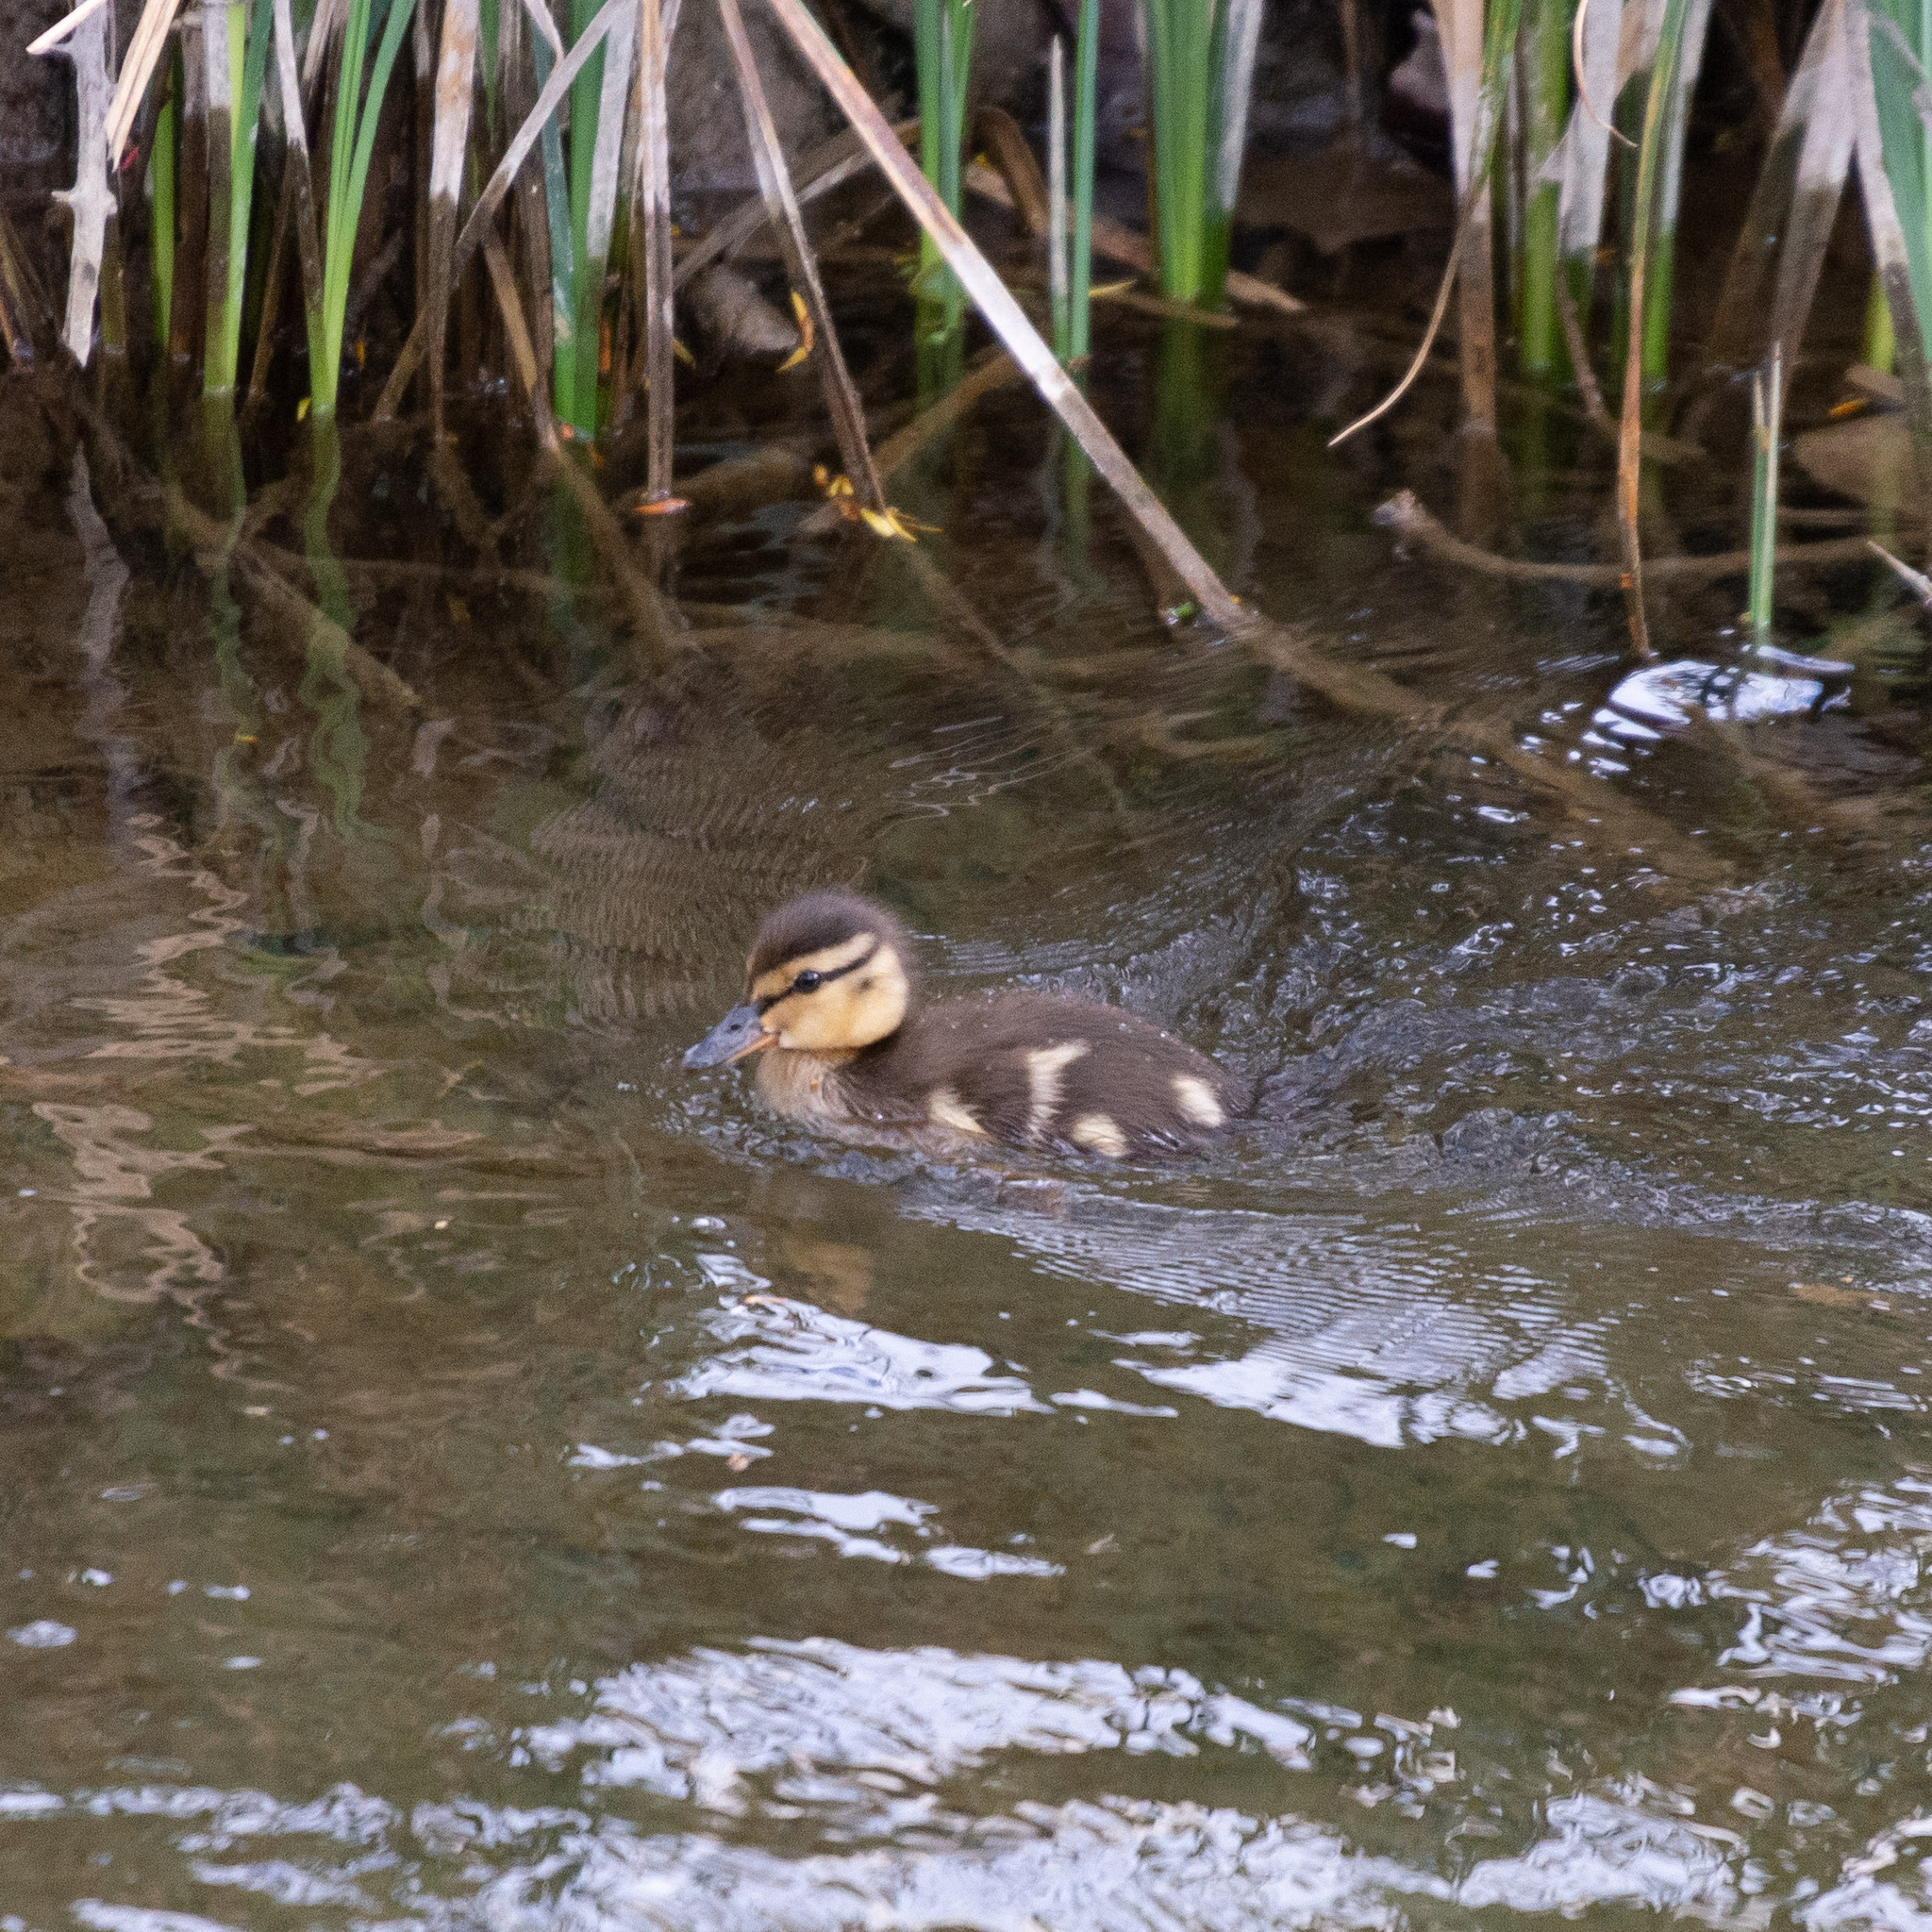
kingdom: Animalia
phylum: Chordata
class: Aves
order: Anseriformes
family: Anatidae
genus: Anas
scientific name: Anas platyrhynchos
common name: Mallard
